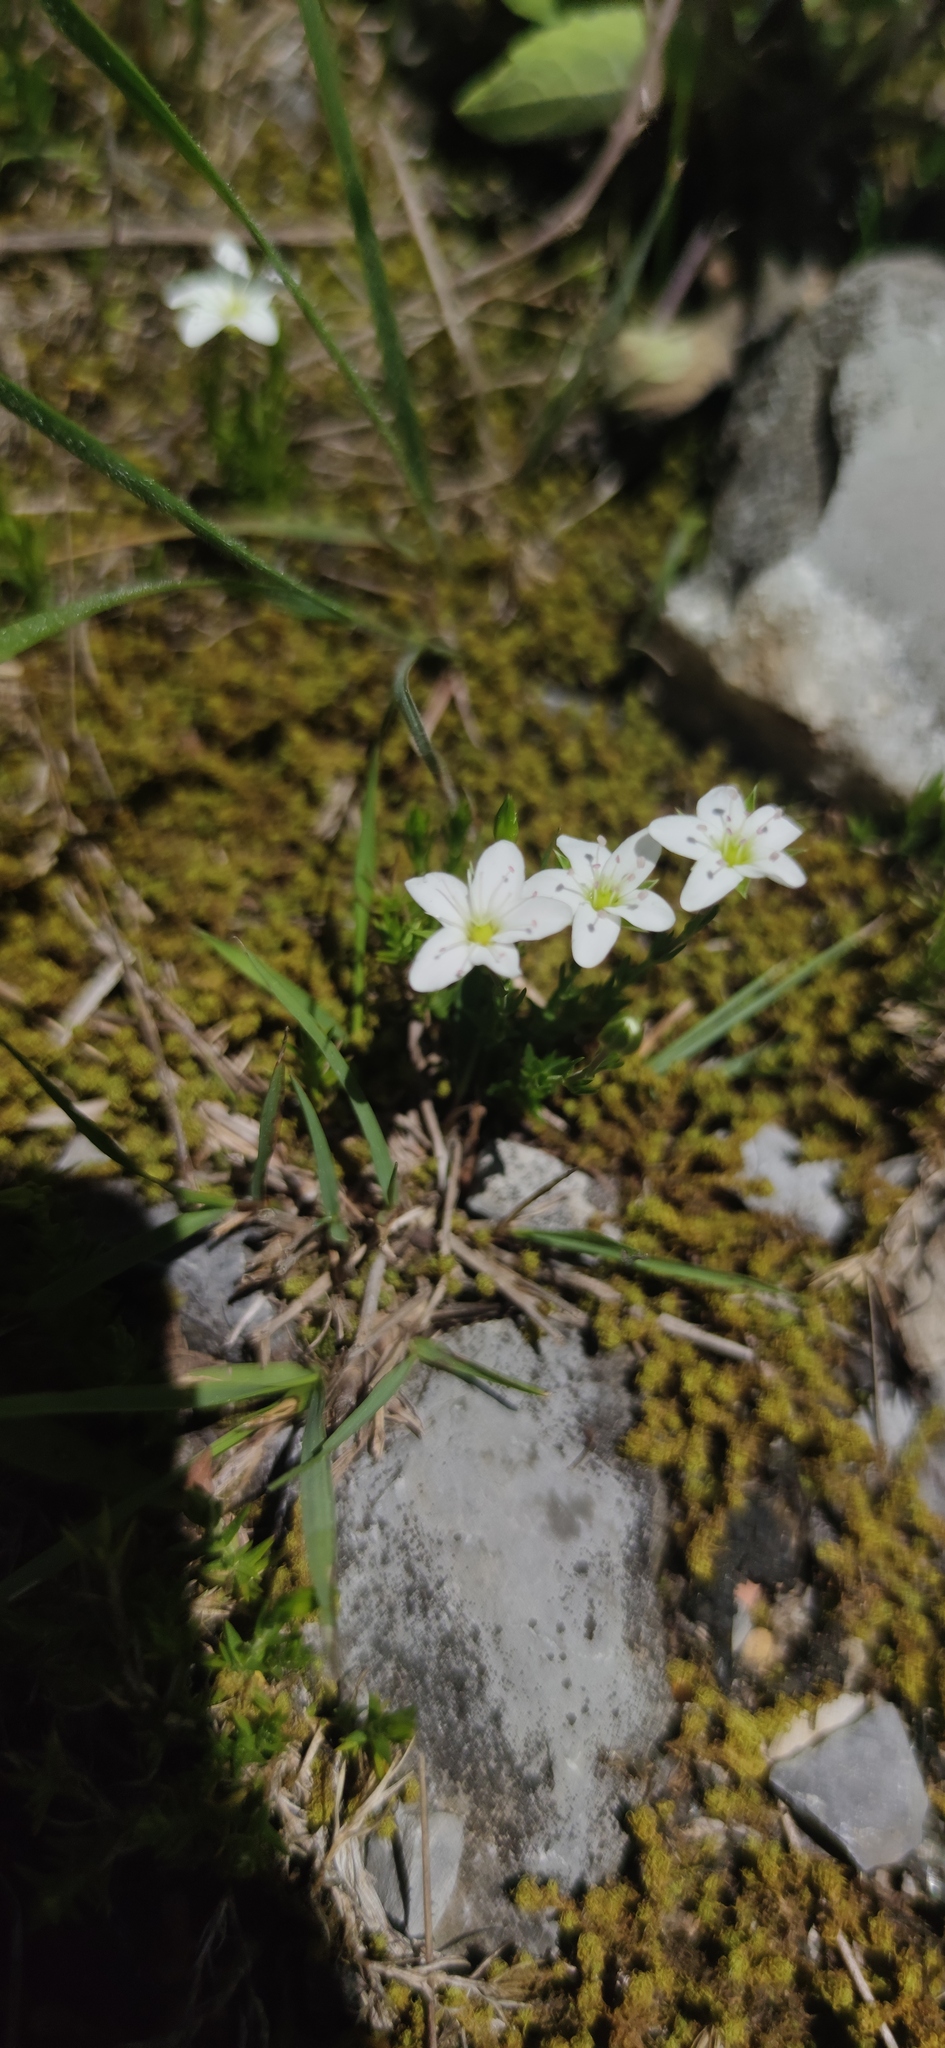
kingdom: Plantae
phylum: Tracheophyta
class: Magnoliopsida
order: Caryophyllales
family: Caryophyllaceae
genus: Arenaria
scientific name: Arenaria lanuginosa
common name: Spread sandwort
